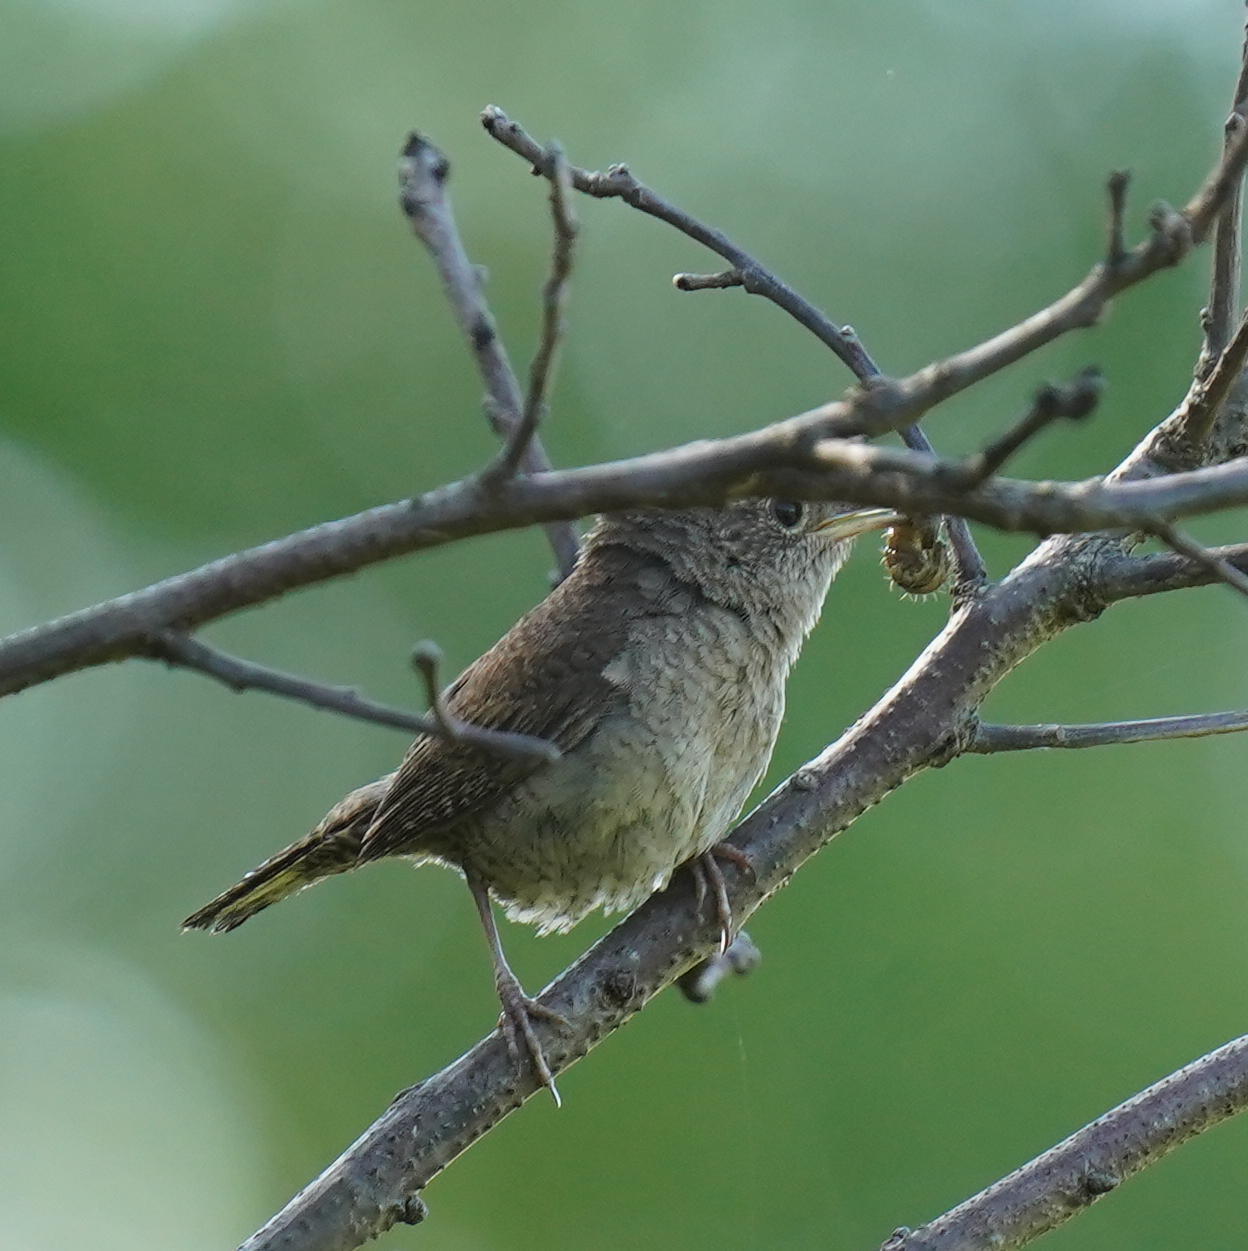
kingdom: Animalia
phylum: Chordata
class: Aves
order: Passeriformes
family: Troglodytidae
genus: Troglodytes
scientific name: Troglodytes aedon
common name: House wren
